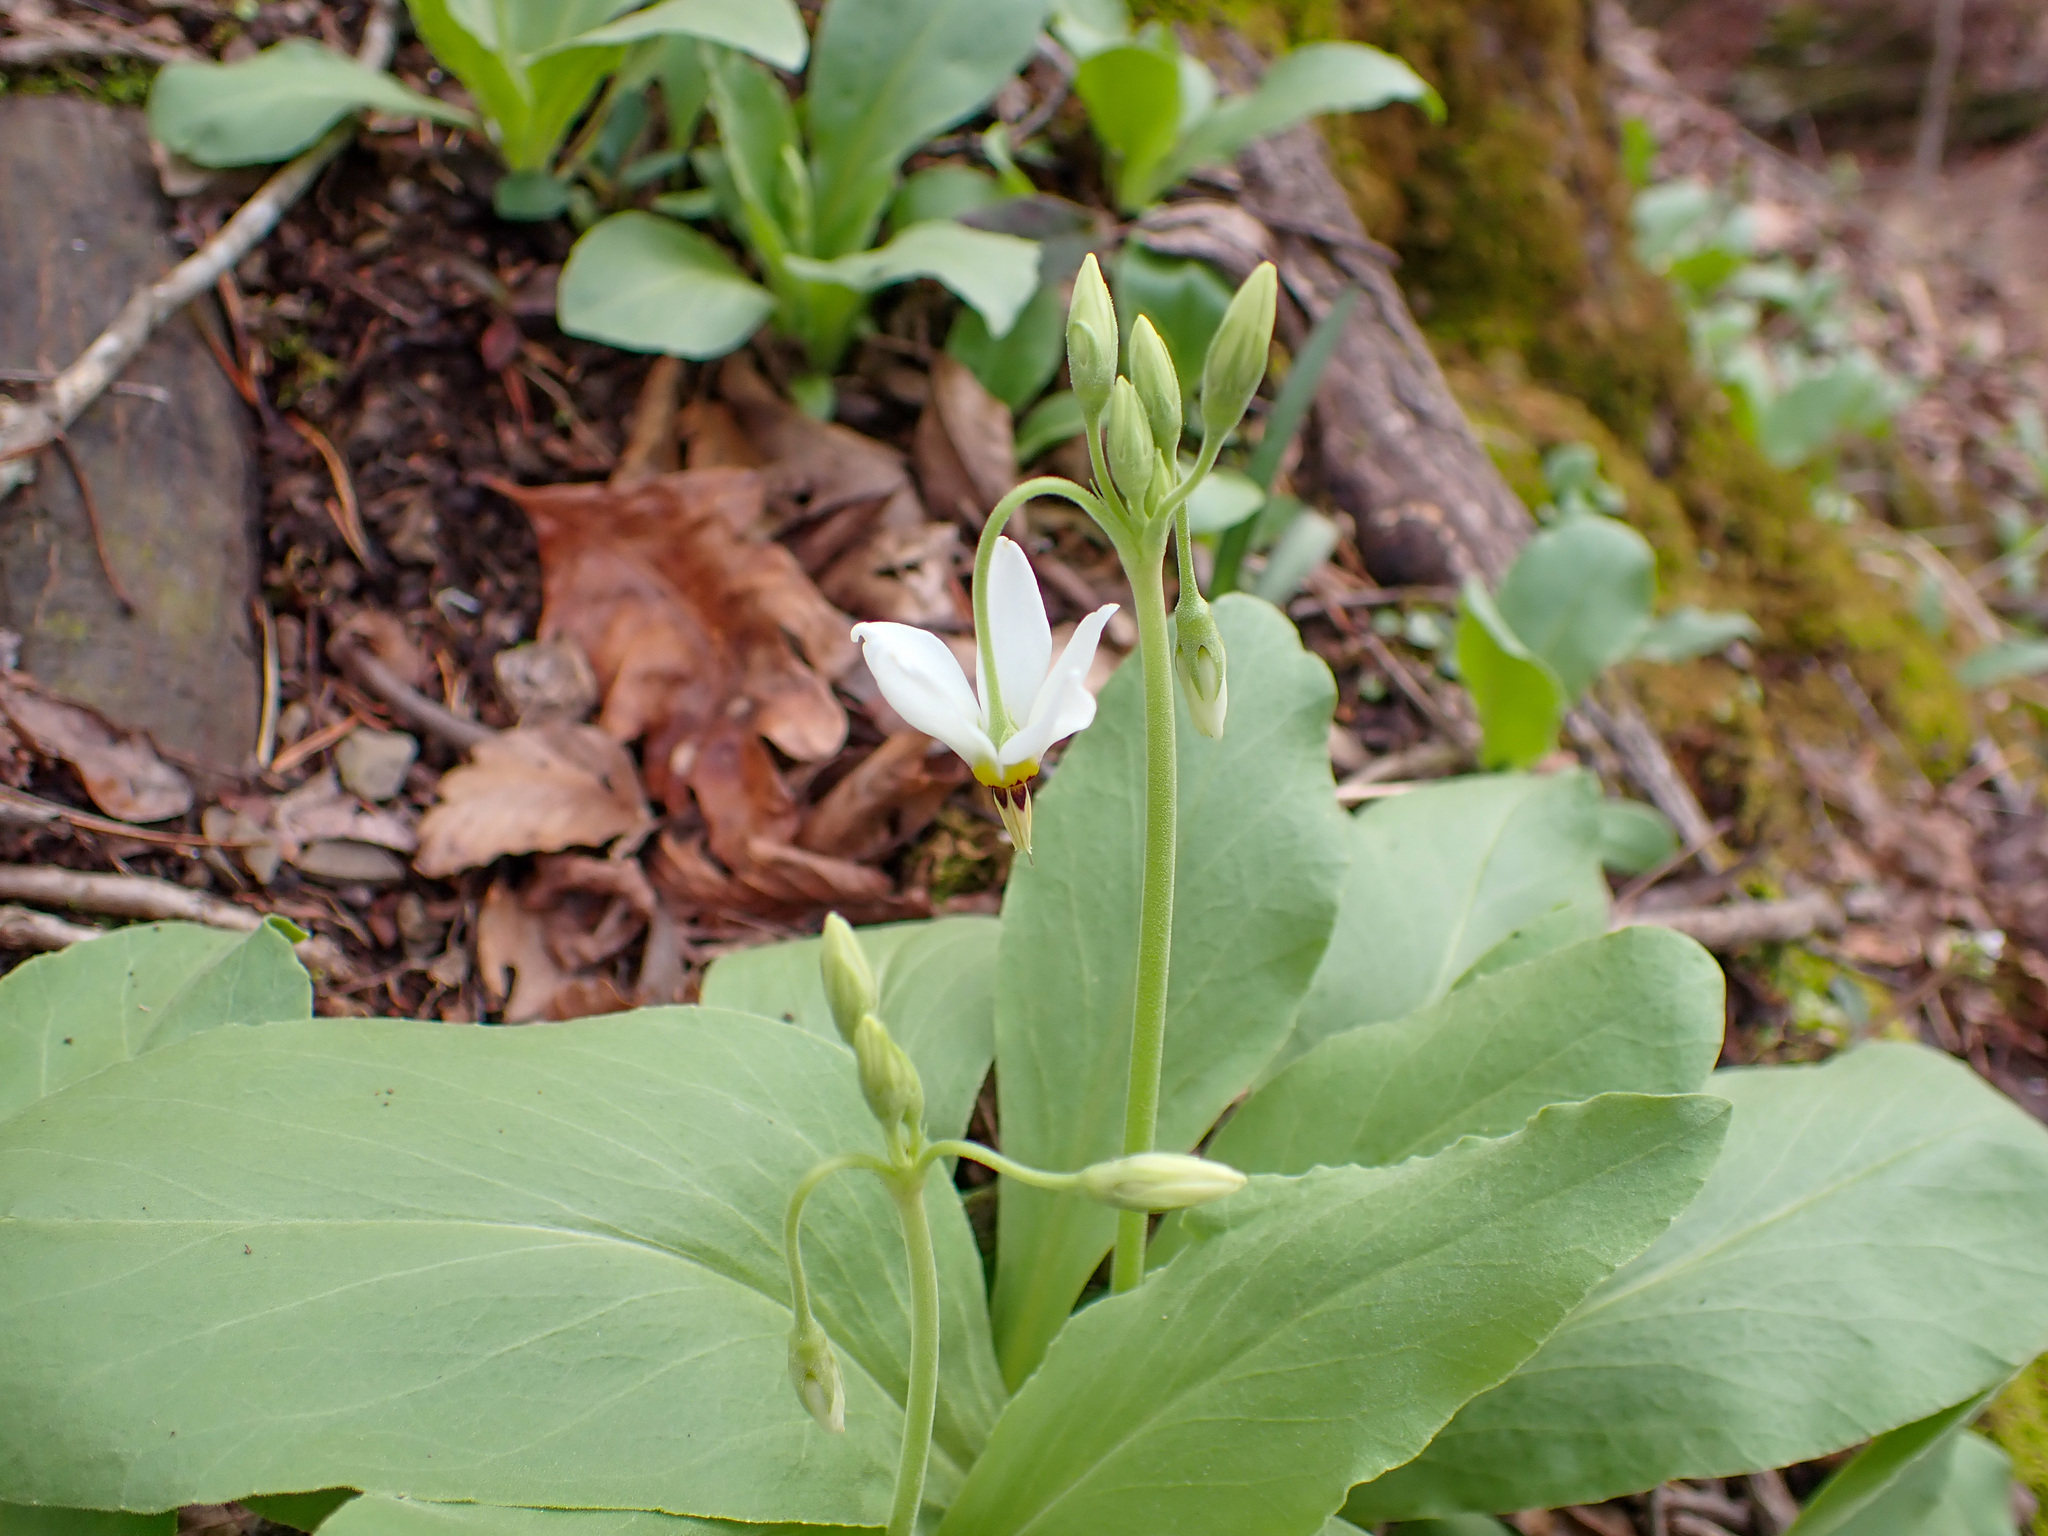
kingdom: Plantae
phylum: Tracheophyta
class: Magnoliopsida
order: Ericales
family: Primulaceae
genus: Dodecatheon
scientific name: Dodecatheon meadia
